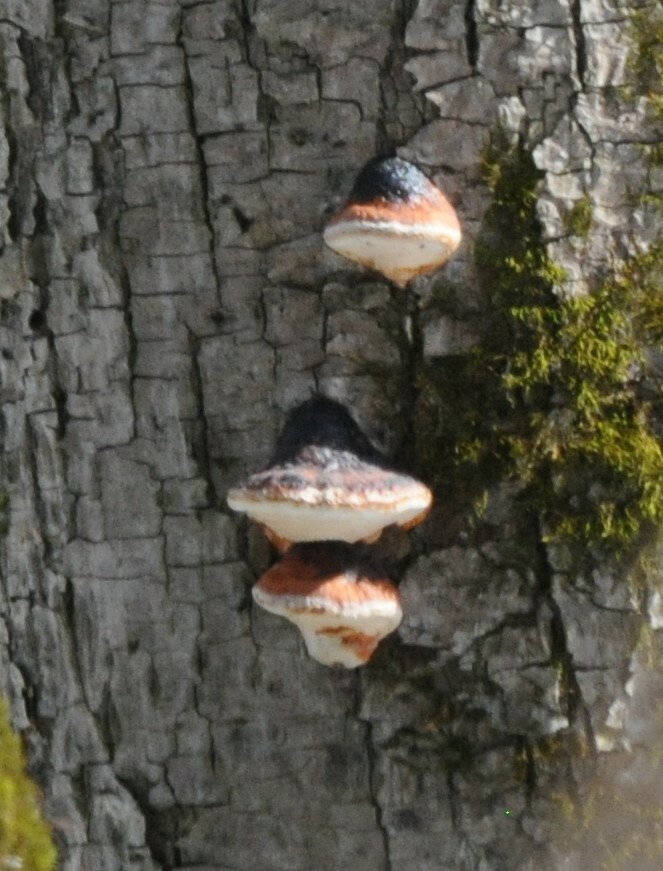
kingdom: Fungi
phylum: Basidiomycota
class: Agaricomycetes
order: Polyporales
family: Fomitopsidaceae
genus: Fomitopsis
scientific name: Fomitopsis pinicola
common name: Red-belted bracket
